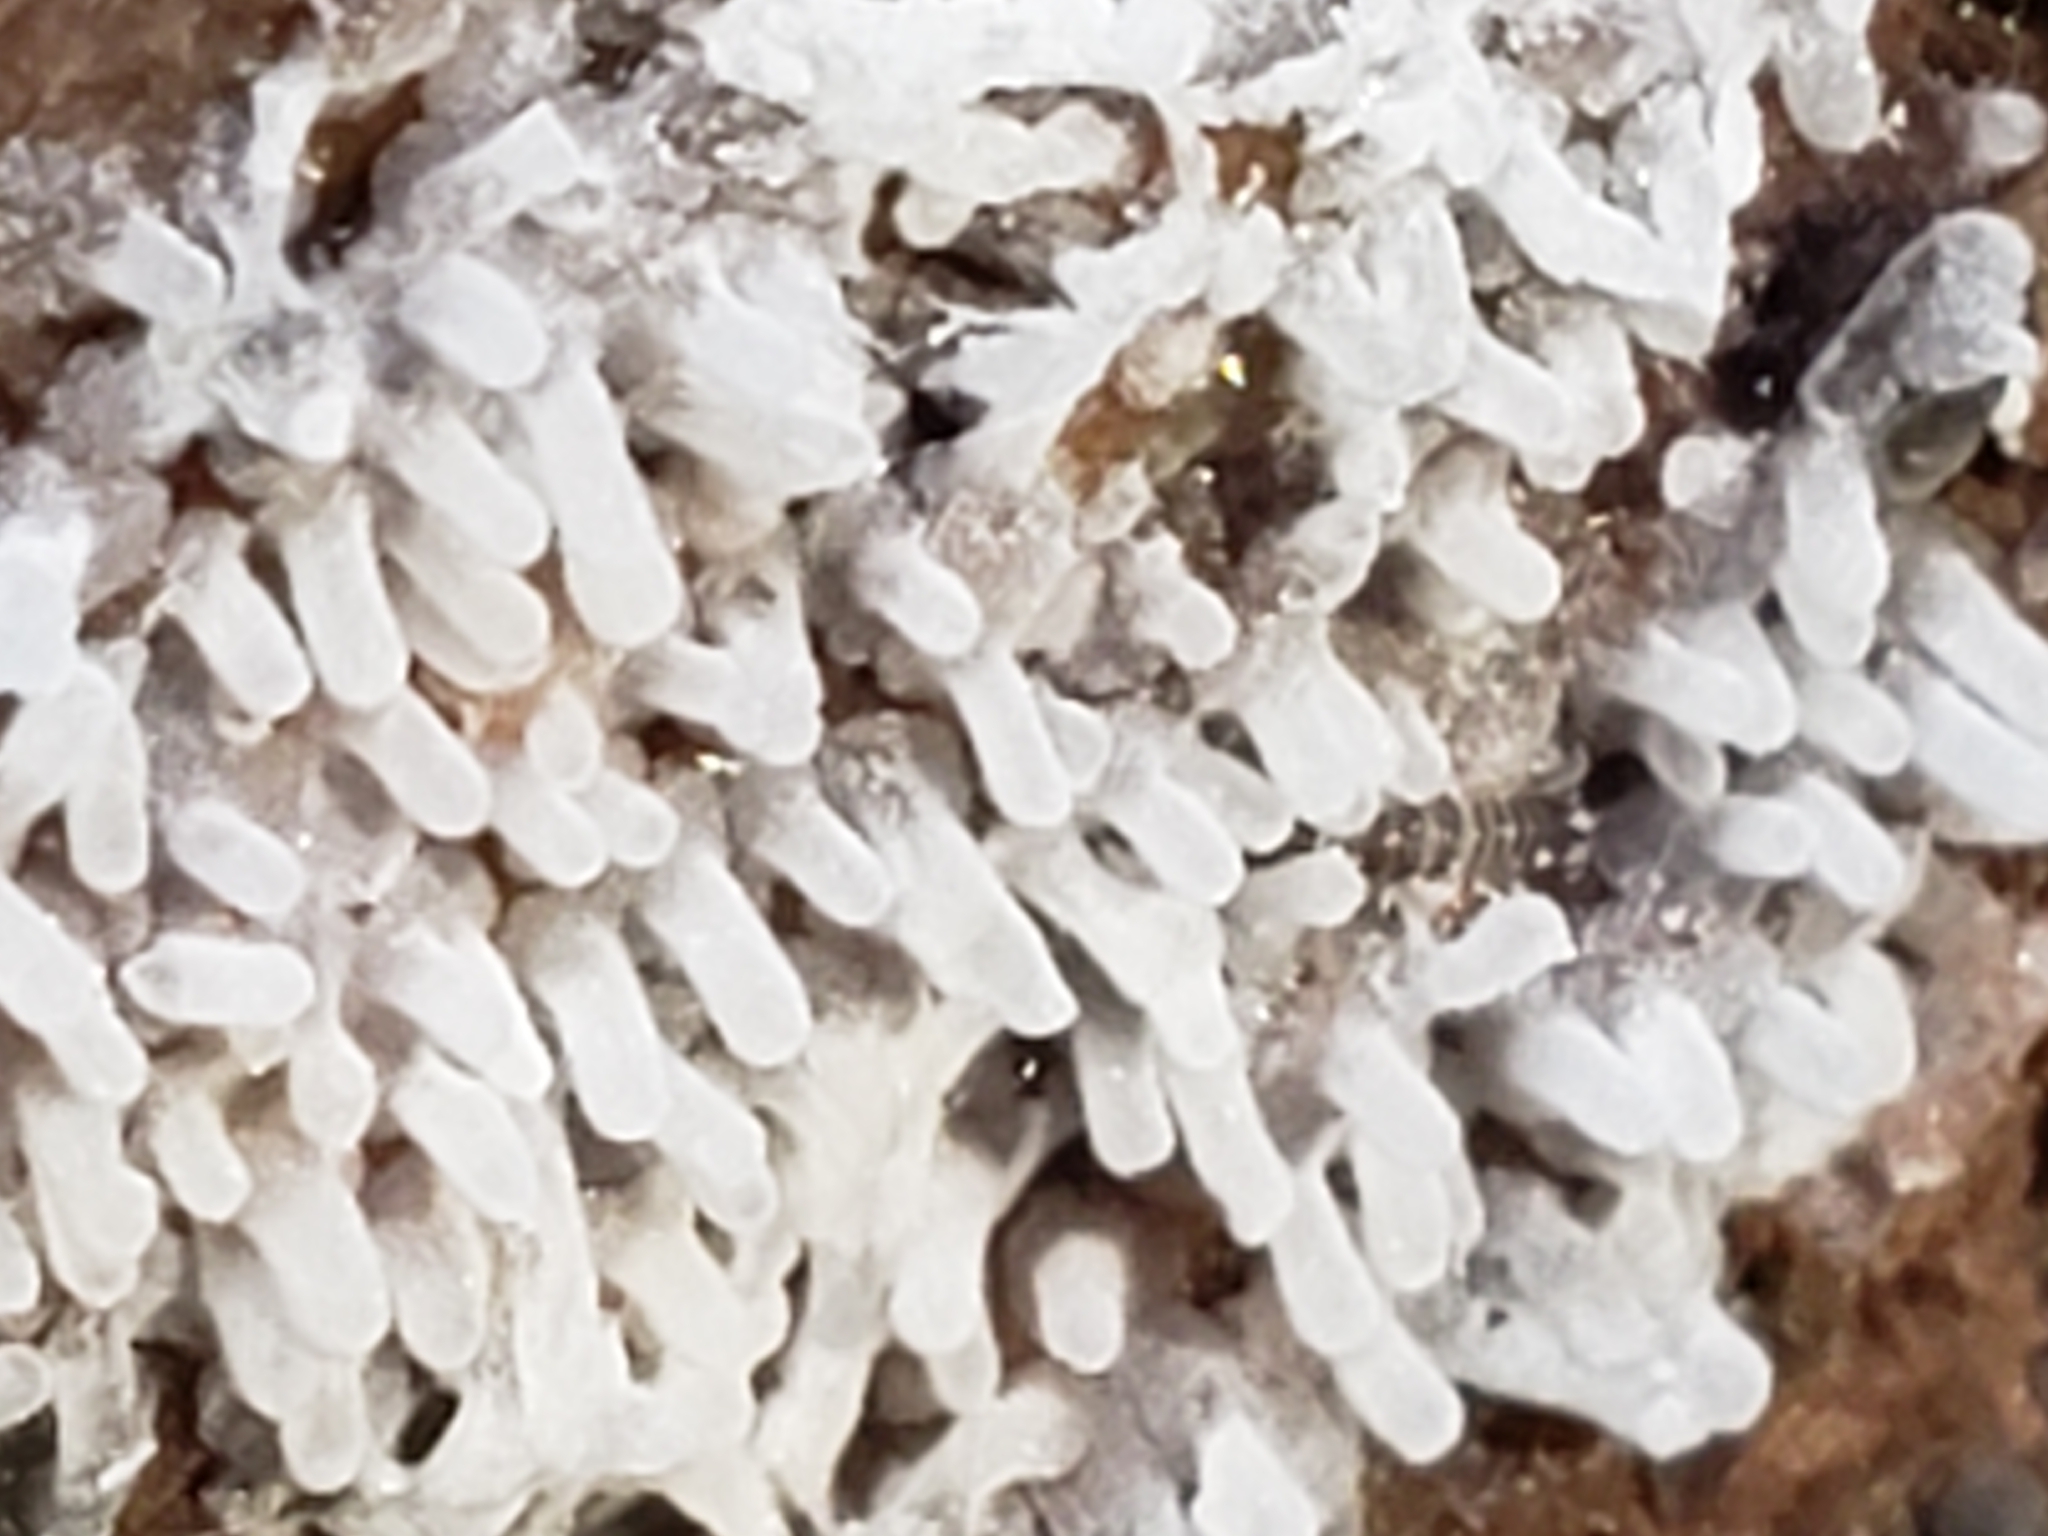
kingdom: Protozoa
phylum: Mycetozoa
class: Protosteliomycetes
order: Ceratiomyxales
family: Ceratiomyxaceae
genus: Ceratiomyxa
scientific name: Ceratiomyxa fruticulosa
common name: Honeycomb coral slime mold
